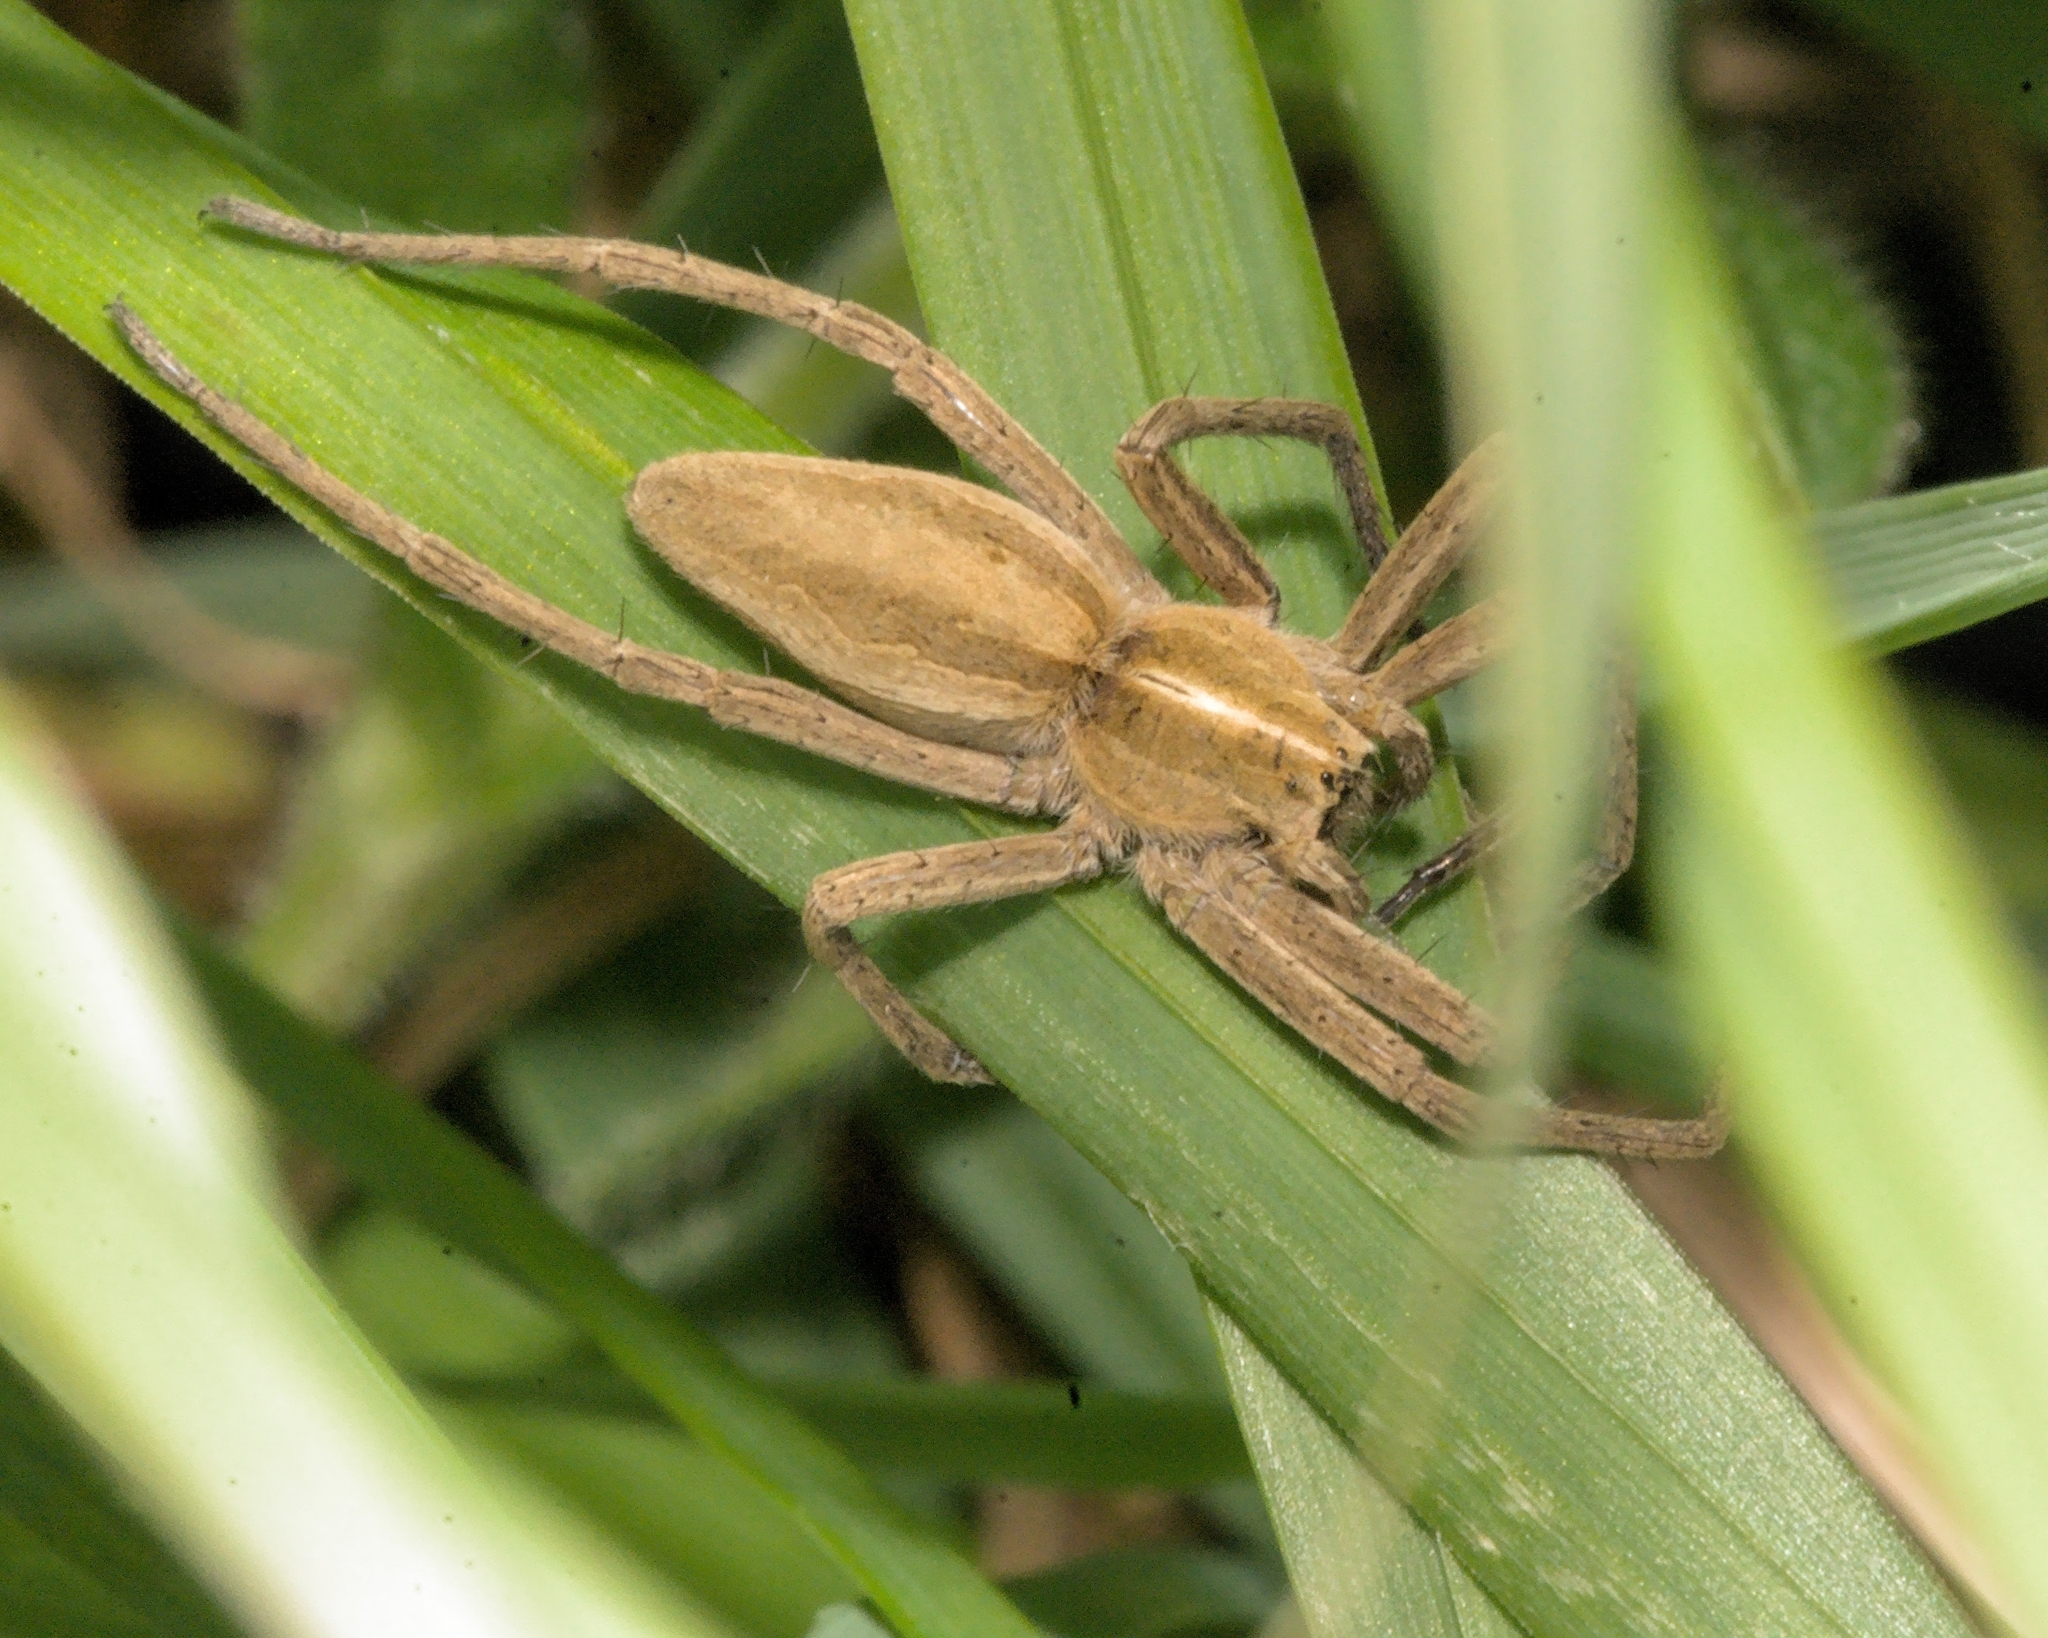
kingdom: Animalia
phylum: Arthropoda
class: Arachnida
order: Araneae
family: Pisauridae
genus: Pisaura
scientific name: Pisaura mirabilis
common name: Tent spider
